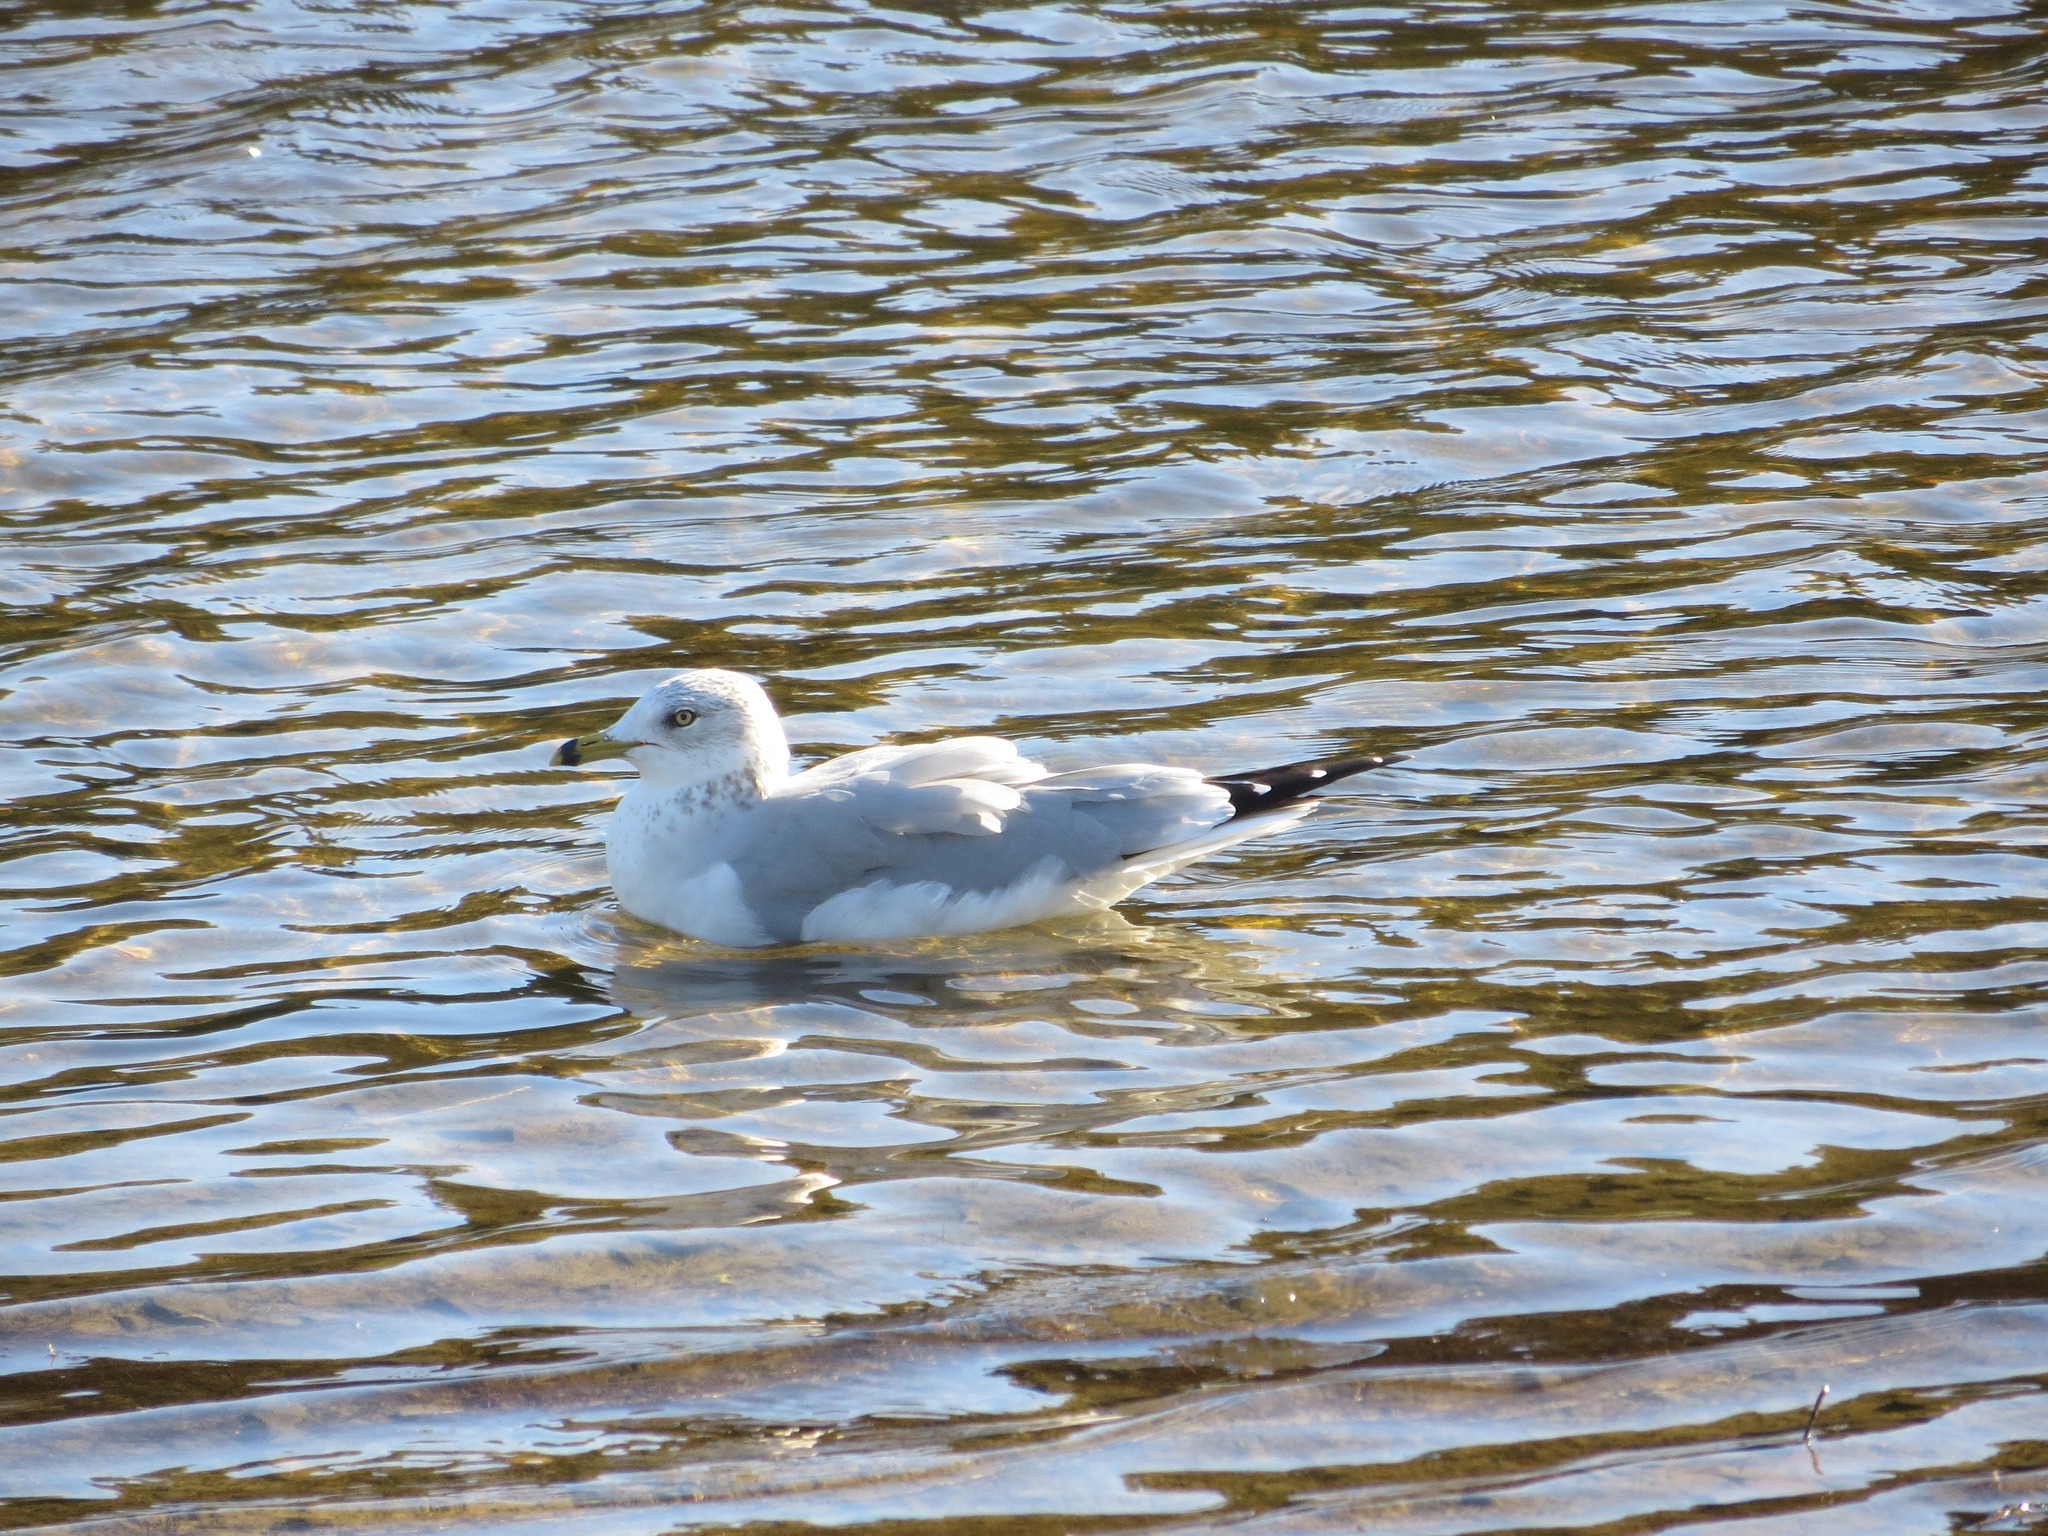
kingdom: Animalia
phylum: Chordata
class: Aves
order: Charadriiformes
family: Laridae
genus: Larus
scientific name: Larus delawarensis
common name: Ring-billed gull
